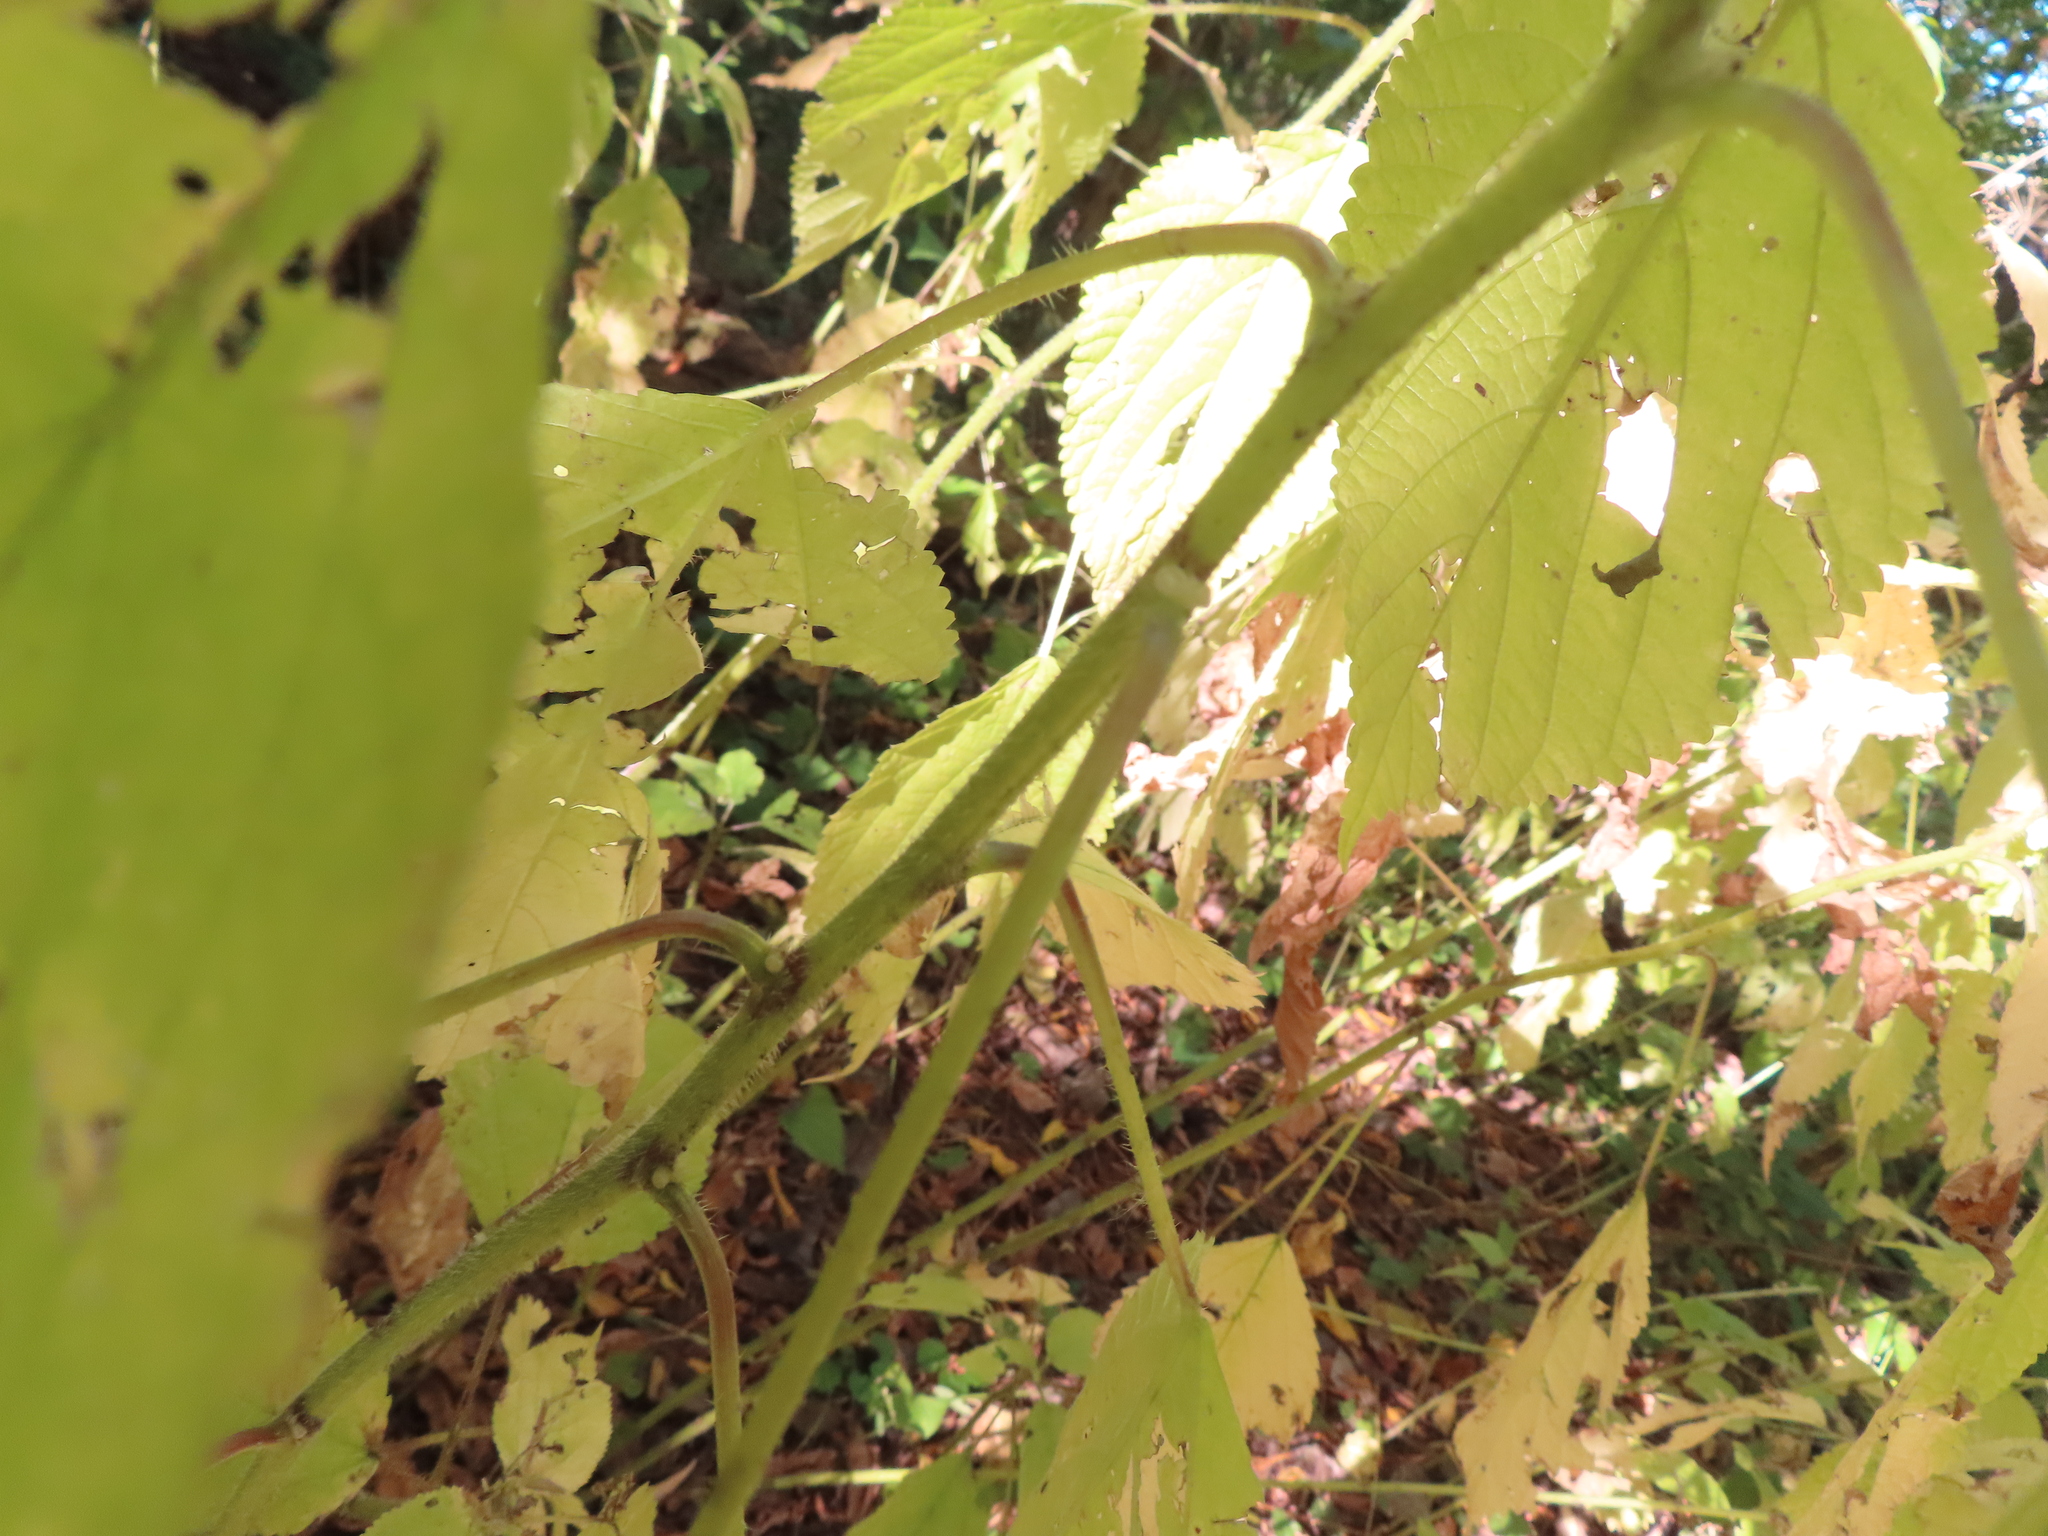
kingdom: Plantae
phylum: Tracheophyta
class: Magnoliopsida
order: Rosales
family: Urticaceae
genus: Laportea
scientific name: Laportea canadensis
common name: Canada nettle
